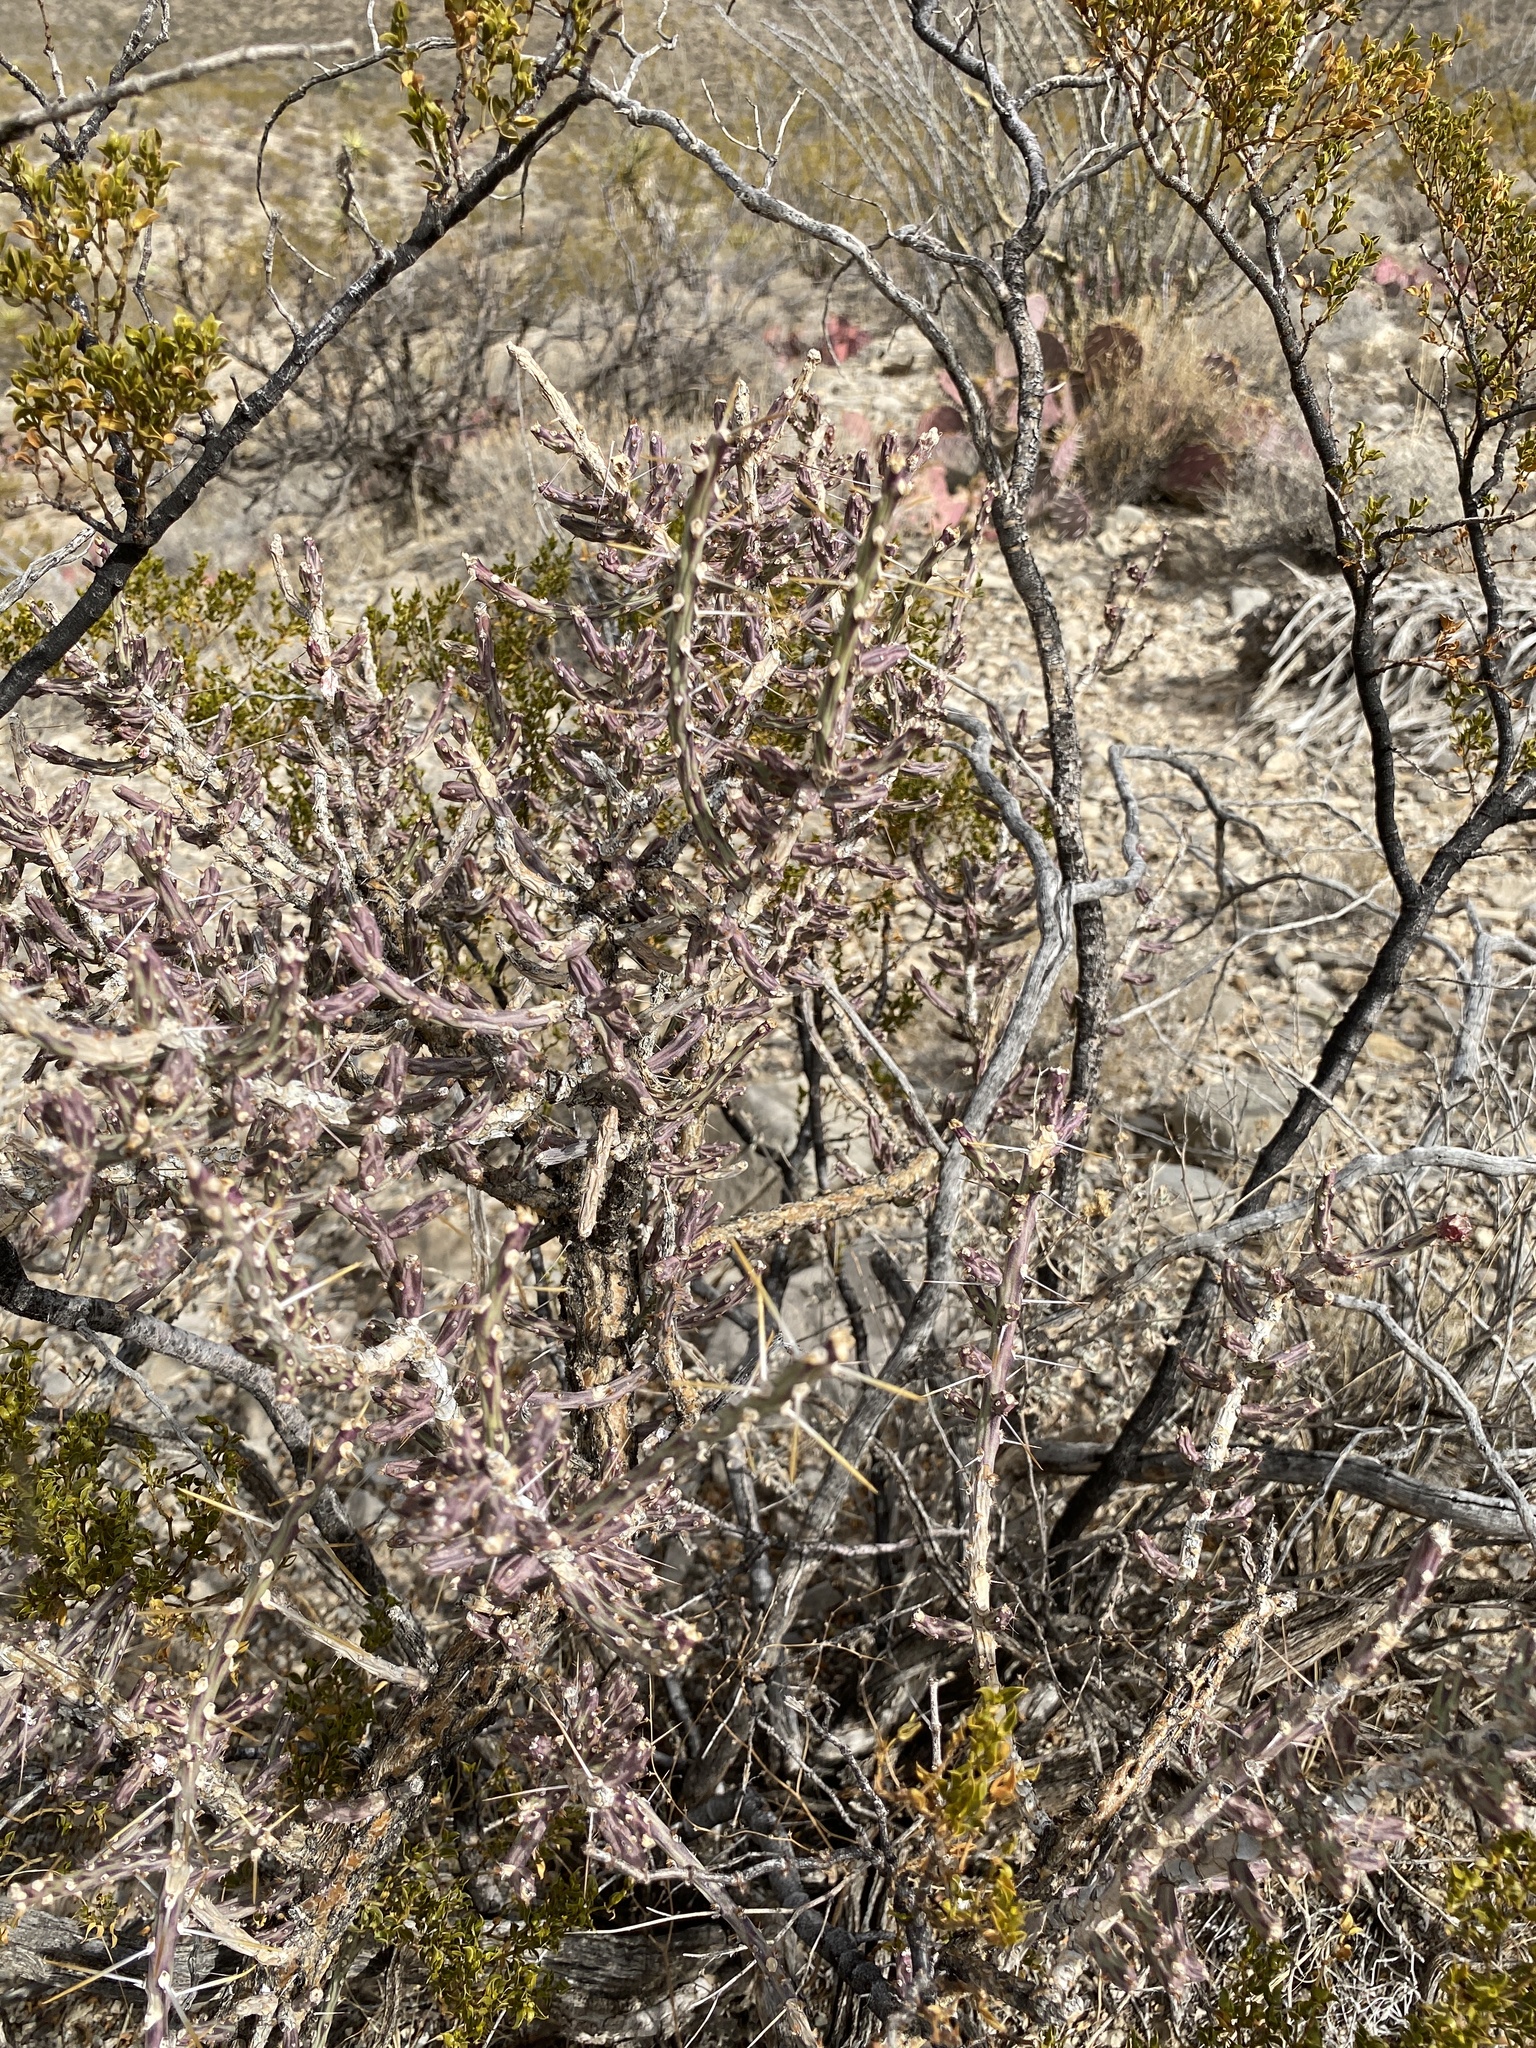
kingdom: Plantae
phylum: Tracheophyta
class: Magnoliopsida
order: Caryophyllales
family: Cactaceae
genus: Cylindropuntia
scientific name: Cylindropuntia leptocaulis
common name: Christmas cactus
